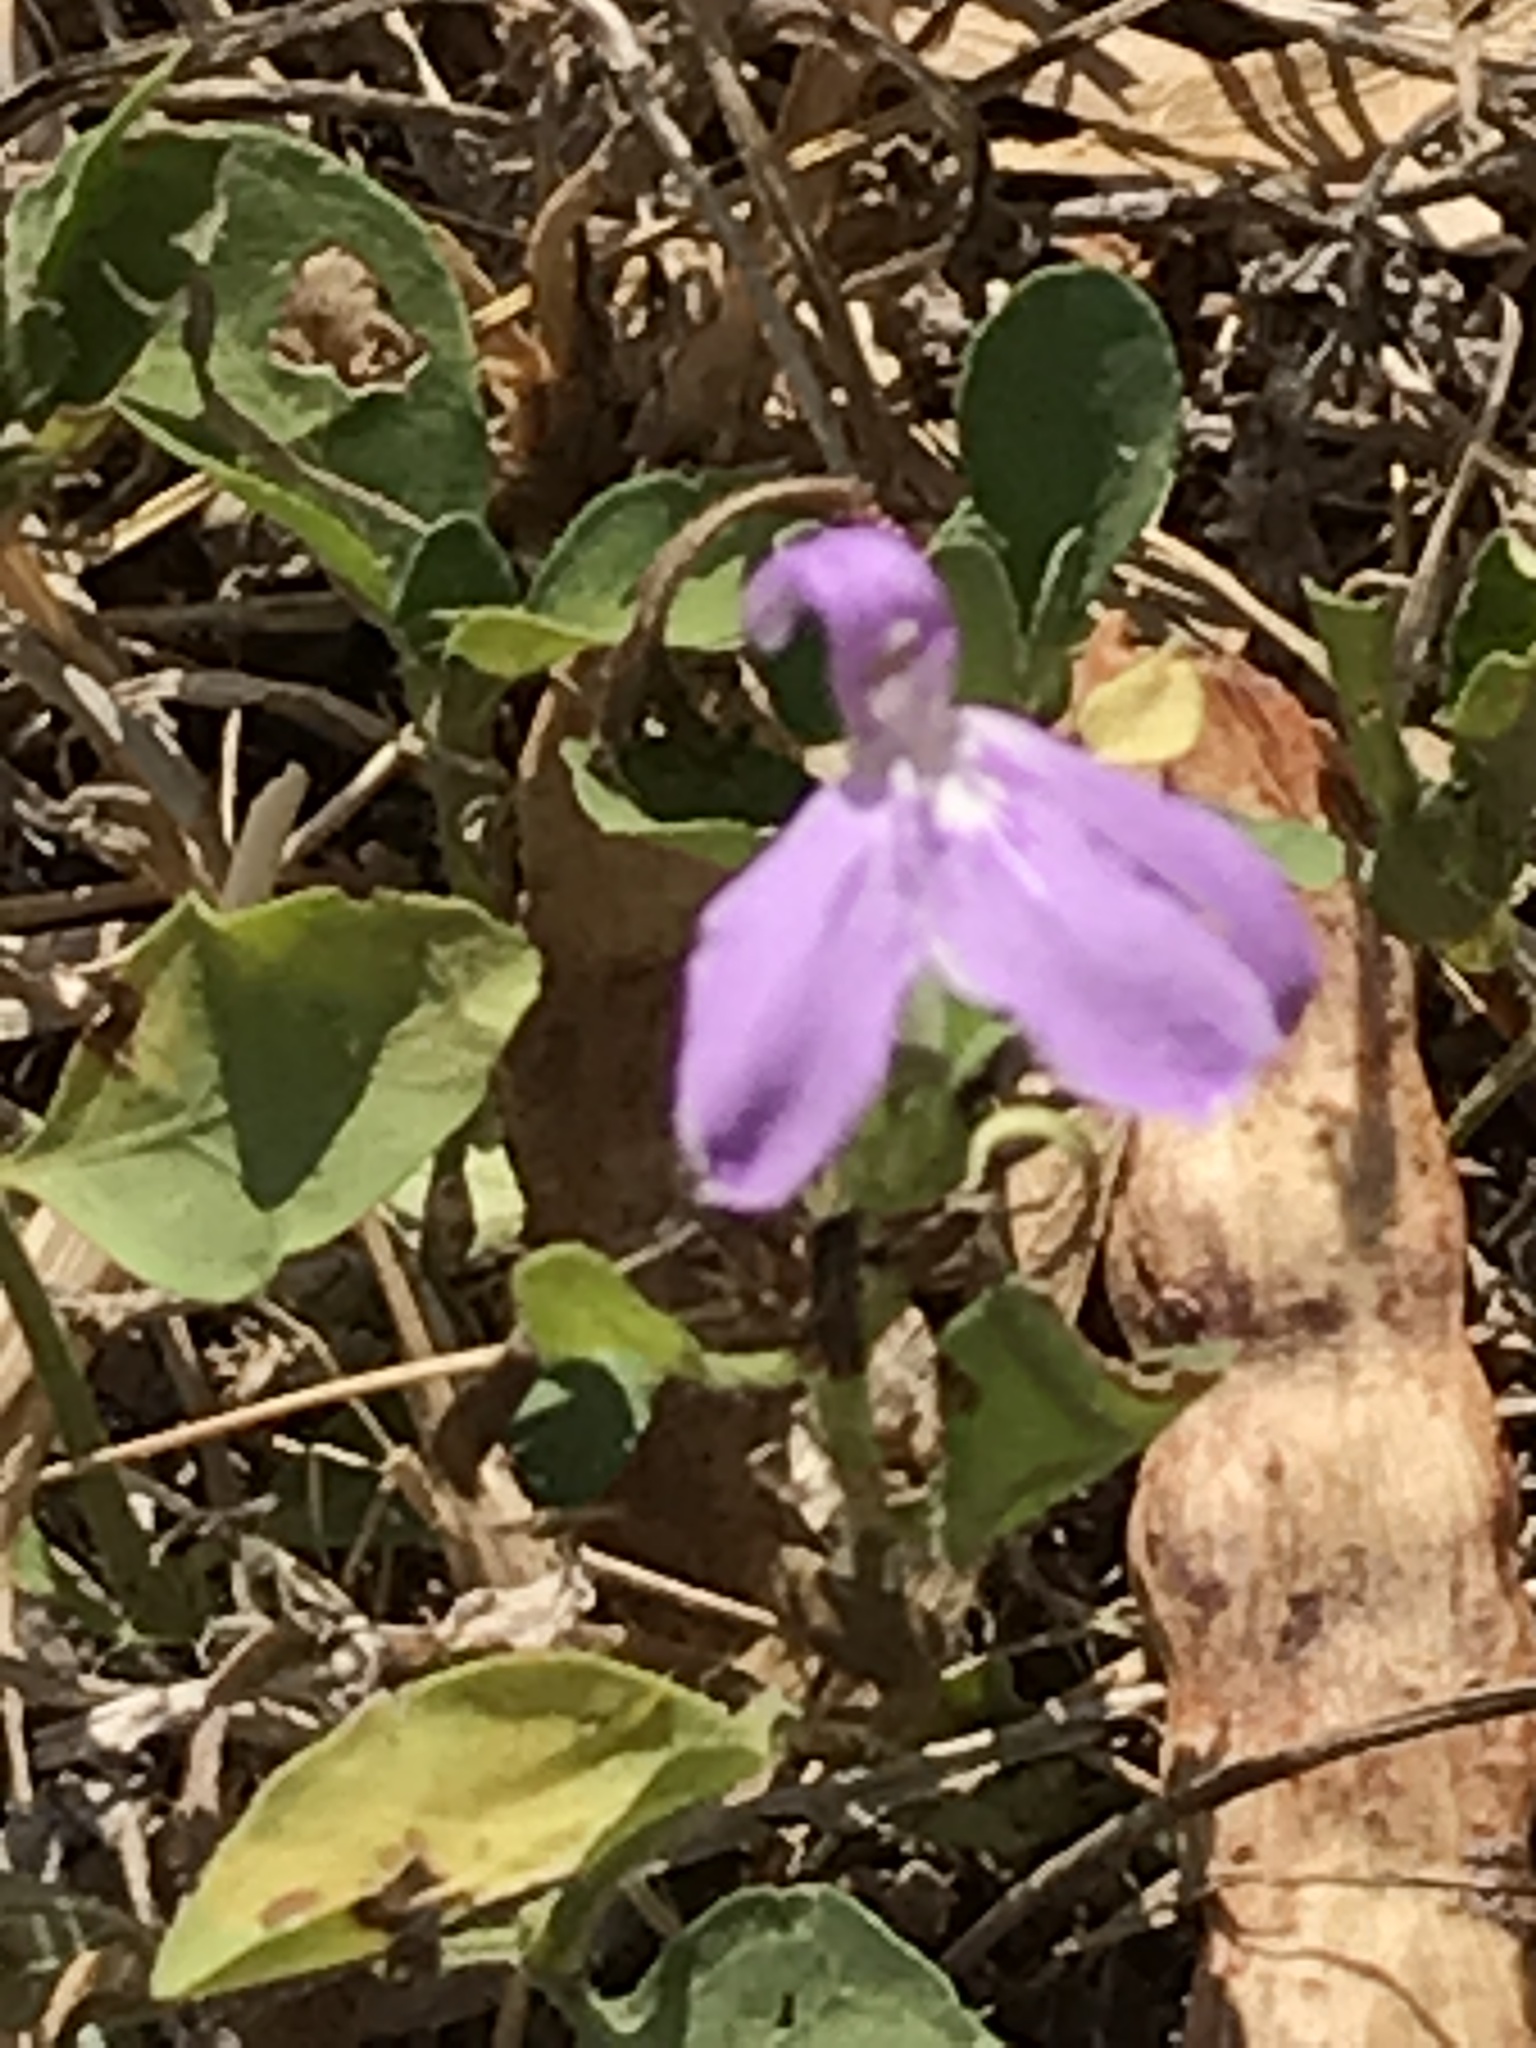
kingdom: Plantae
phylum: Tracheophyta
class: Magnoliopsida
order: Lamiales
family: Acanthaceae
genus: Justicia
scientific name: Justicia pilosella
